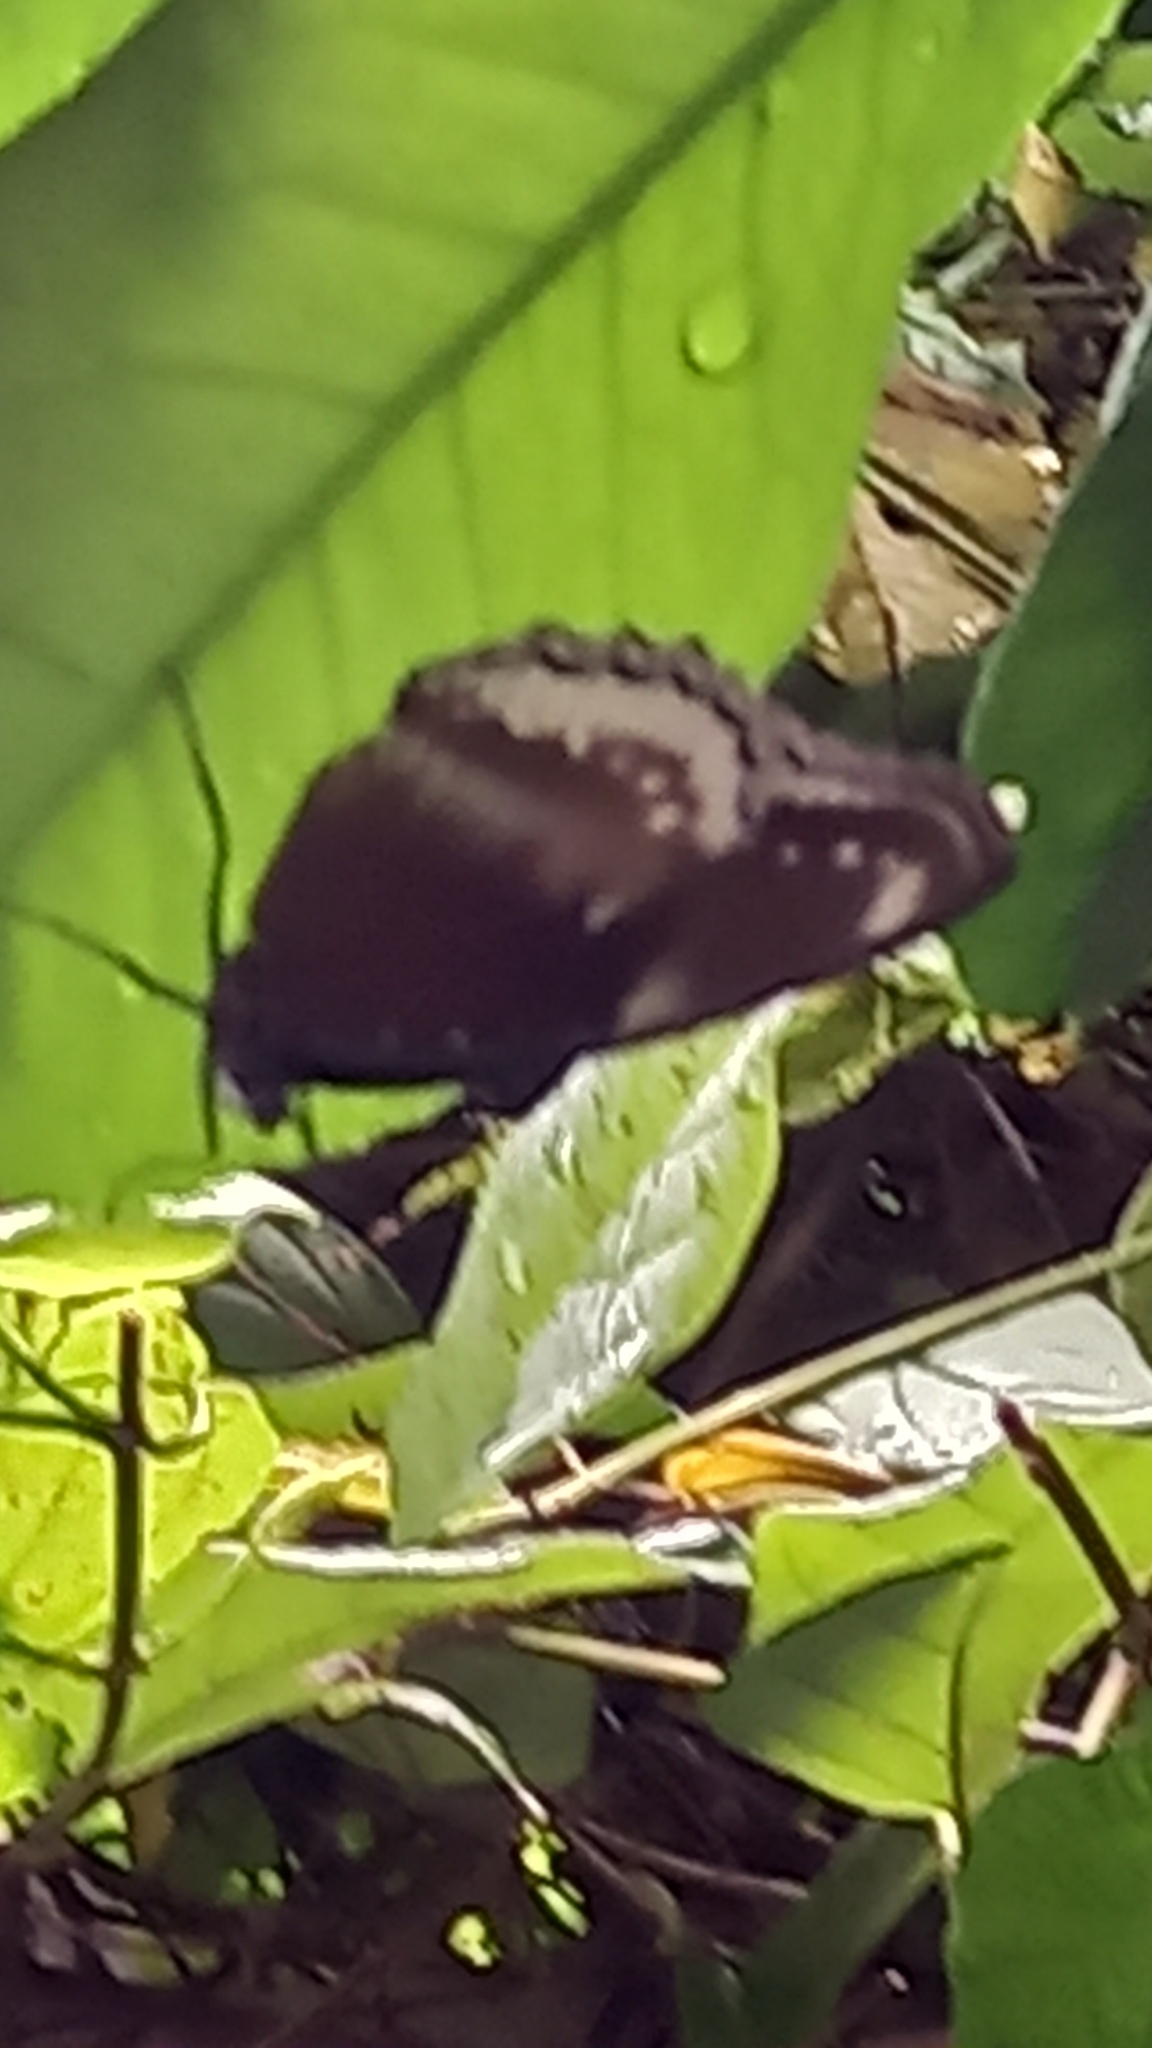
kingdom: Animalia
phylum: Arthropoda
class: Insecta
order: Lepidoptera
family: Nymphalidae
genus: Hypolimnas
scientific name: Hypolimnas bolina
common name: Great eggfly
